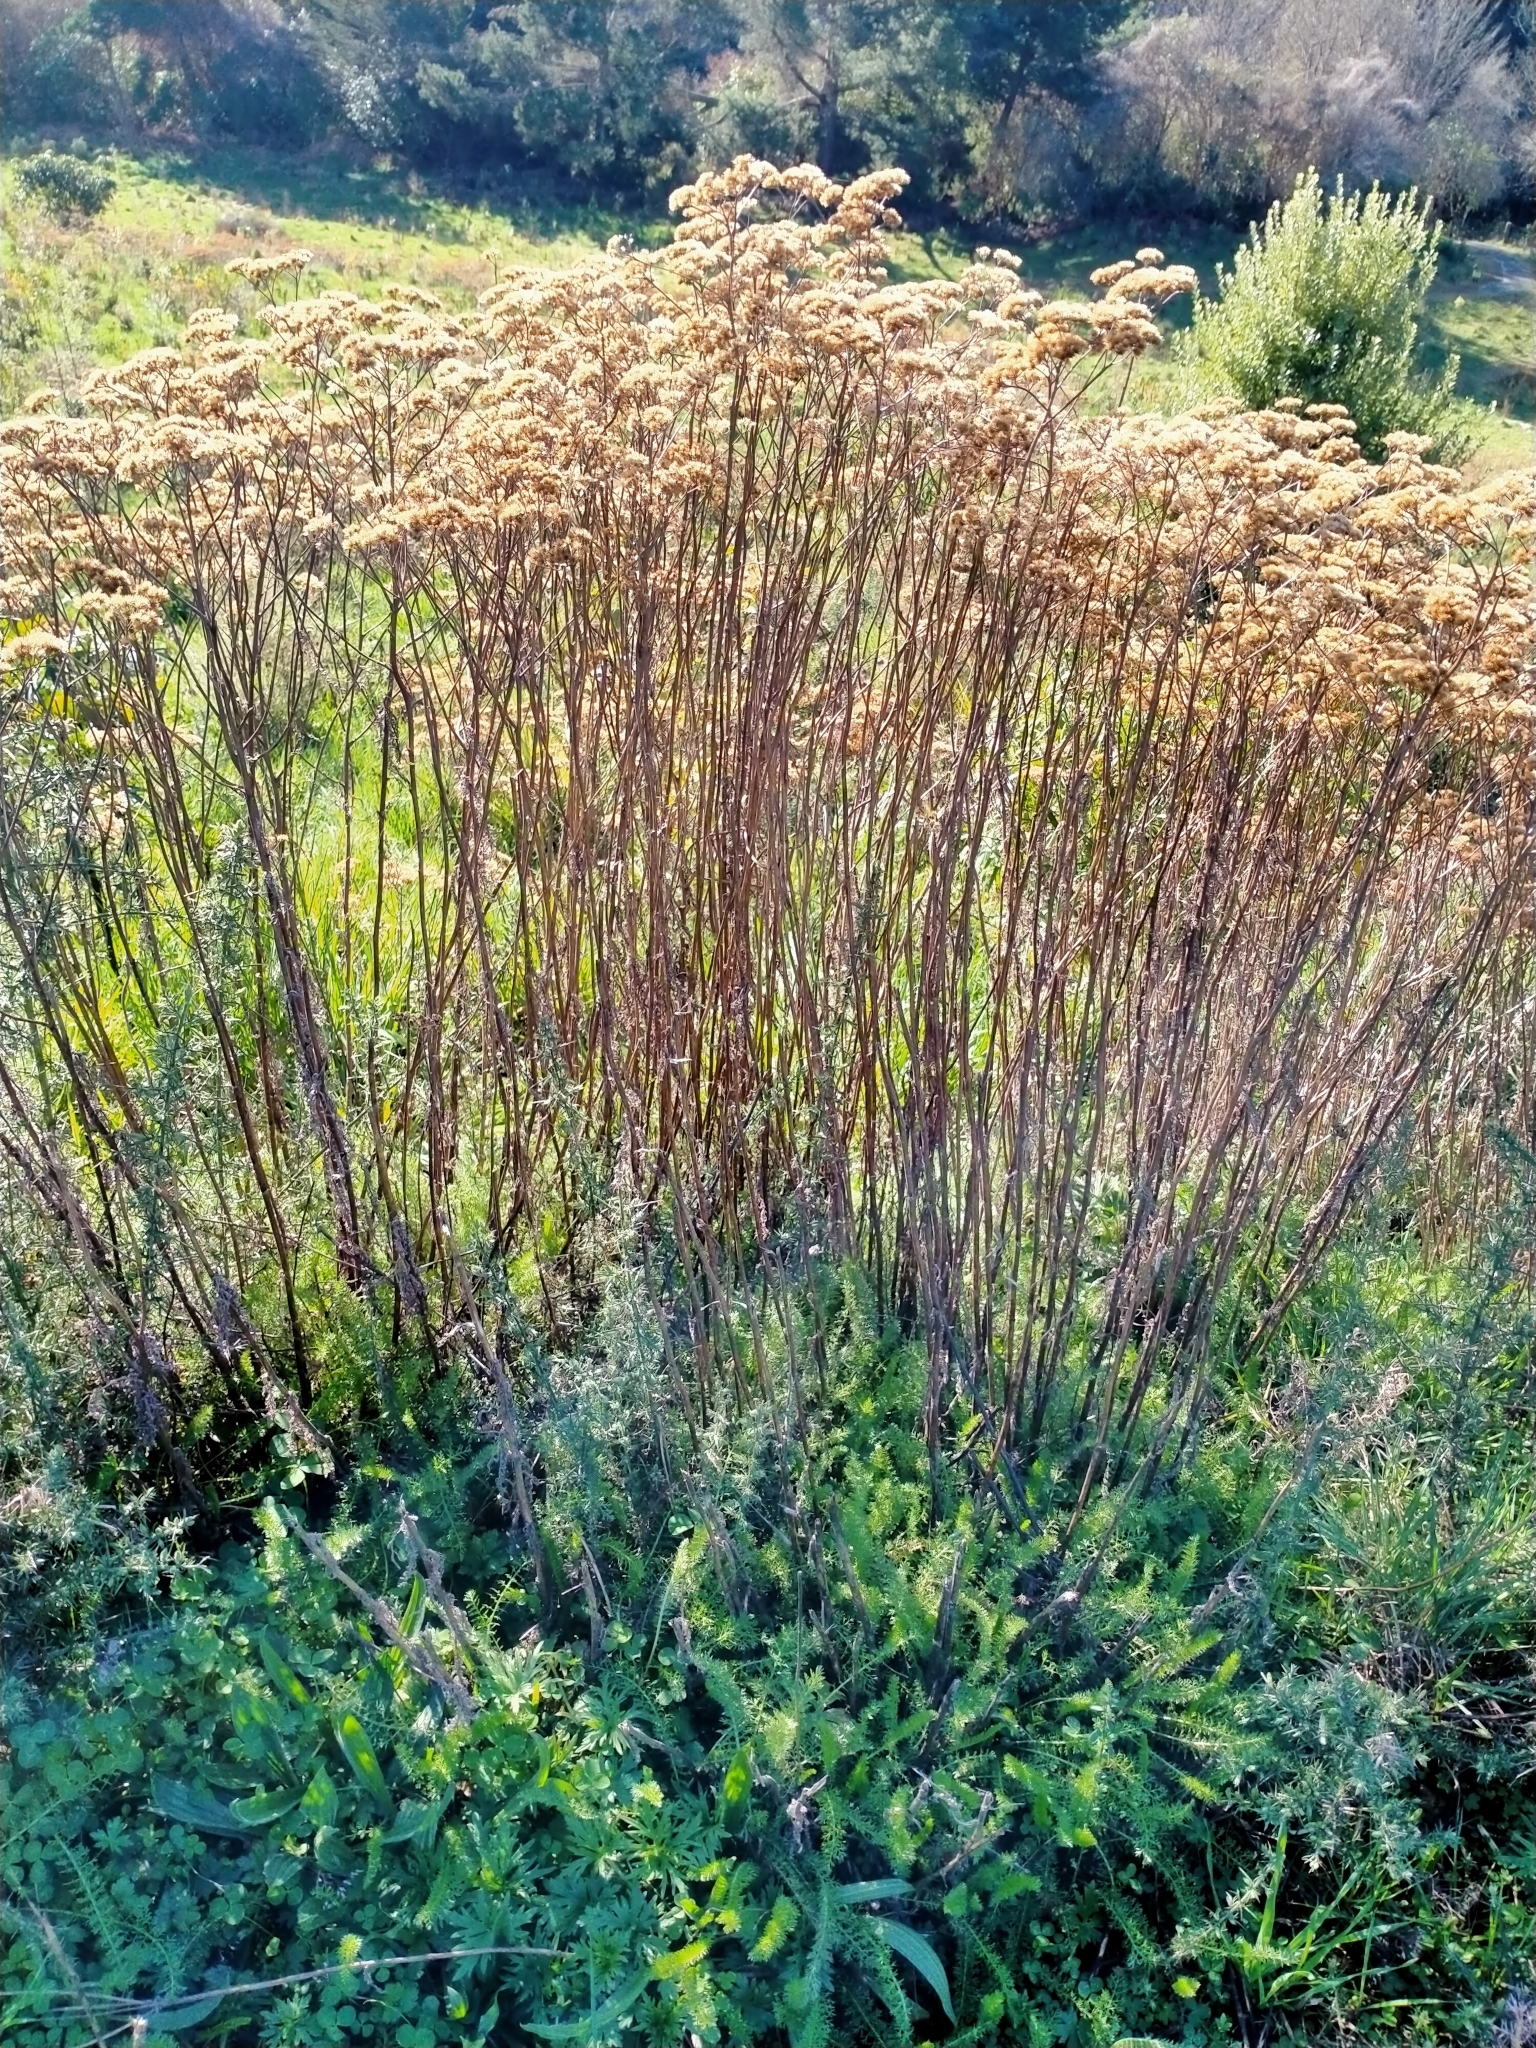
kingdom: Plantae
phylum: Tracheophyta
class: Magnoliopsida
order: Asterales
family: Asteraceae
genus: Achillea
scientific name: Achillea millefolium
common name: Yarrow
